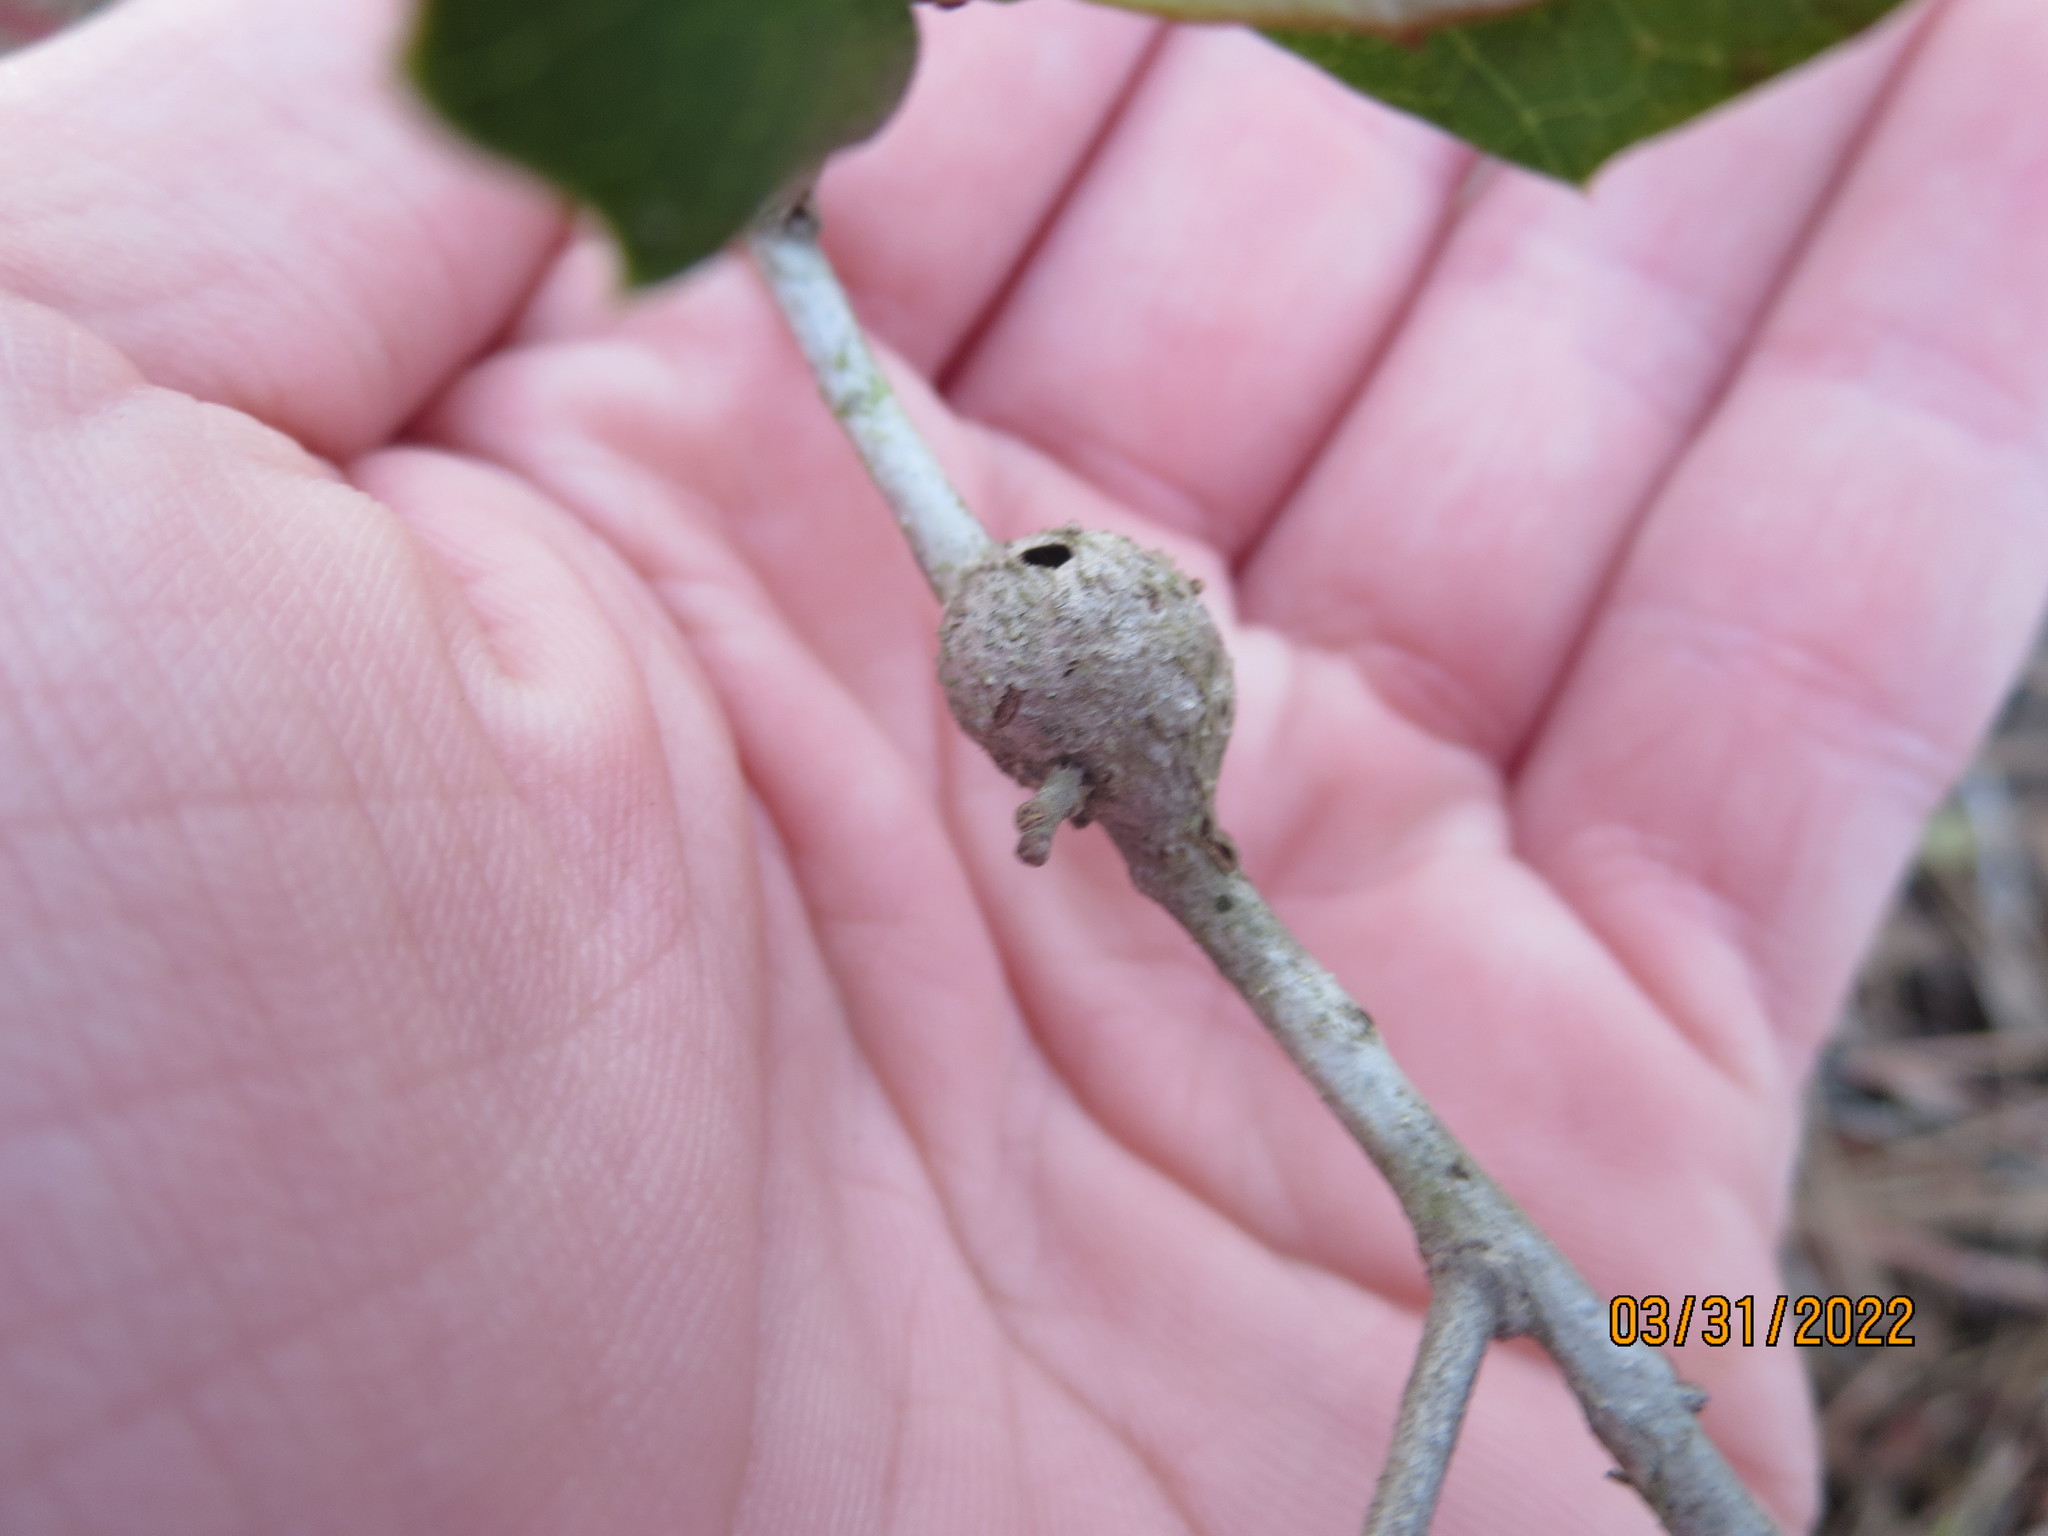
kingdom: Animalia
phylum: Arthropoda
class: Insecta
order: Hymenoptera
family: Cynipidae
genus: Callirhytis
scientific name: Callirhytis
